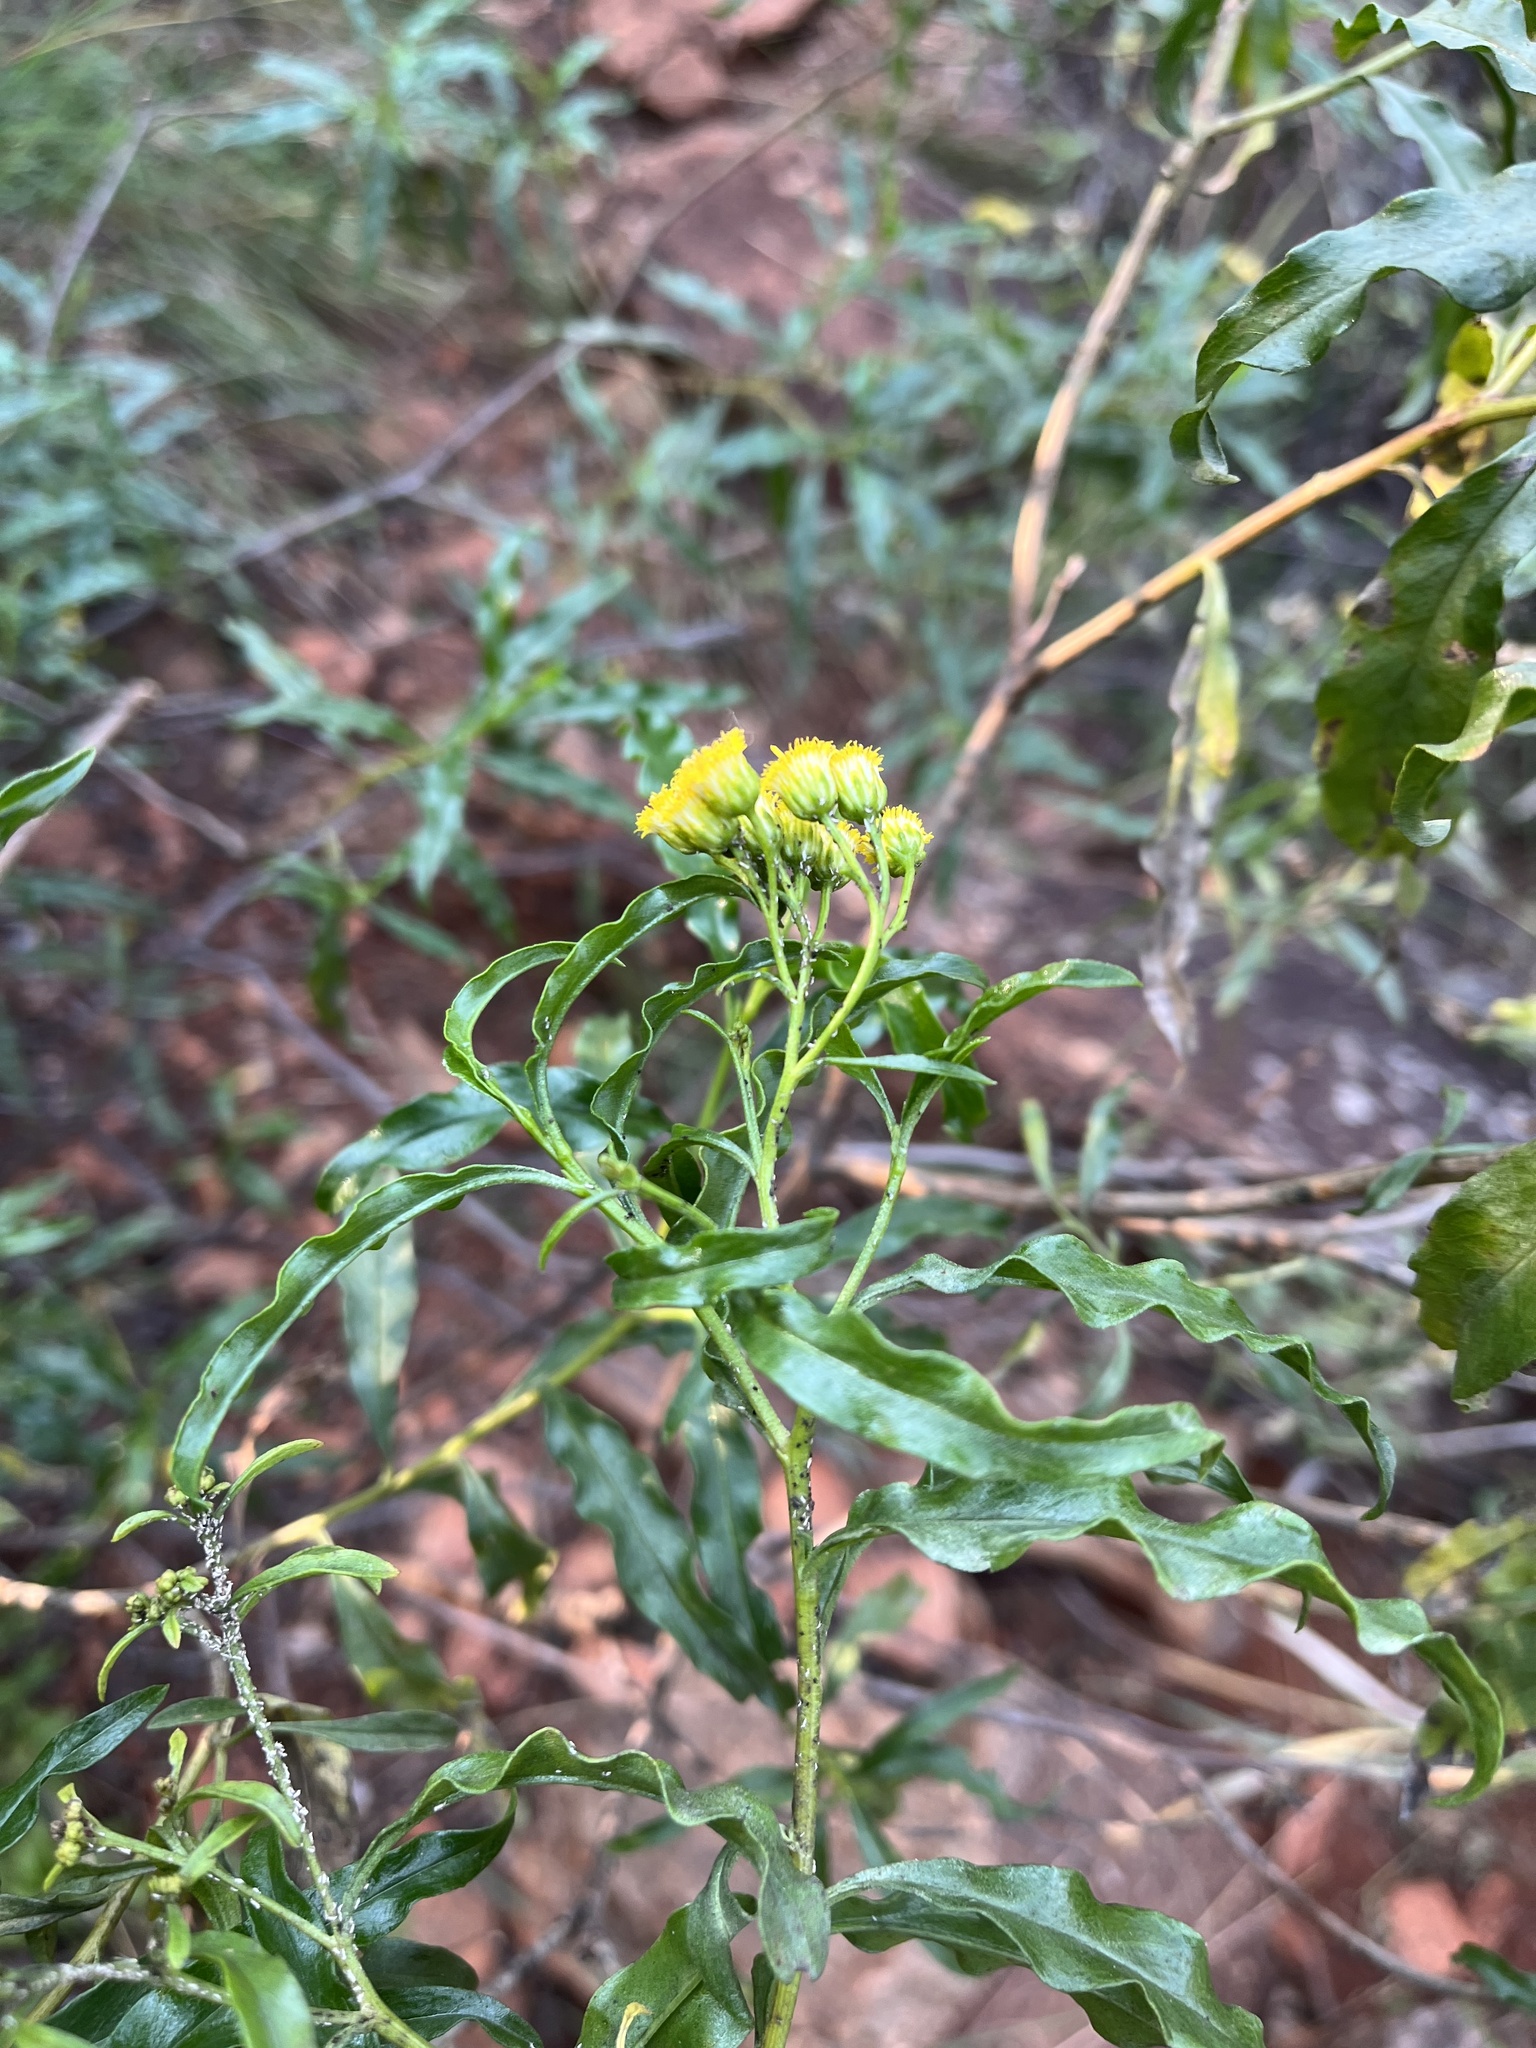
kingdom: Plantae
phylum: Tracheophyta
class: Magnoliopsida
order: Asterales
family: Asteraceae
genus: Psiadia
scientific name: Psiadia punctulata
